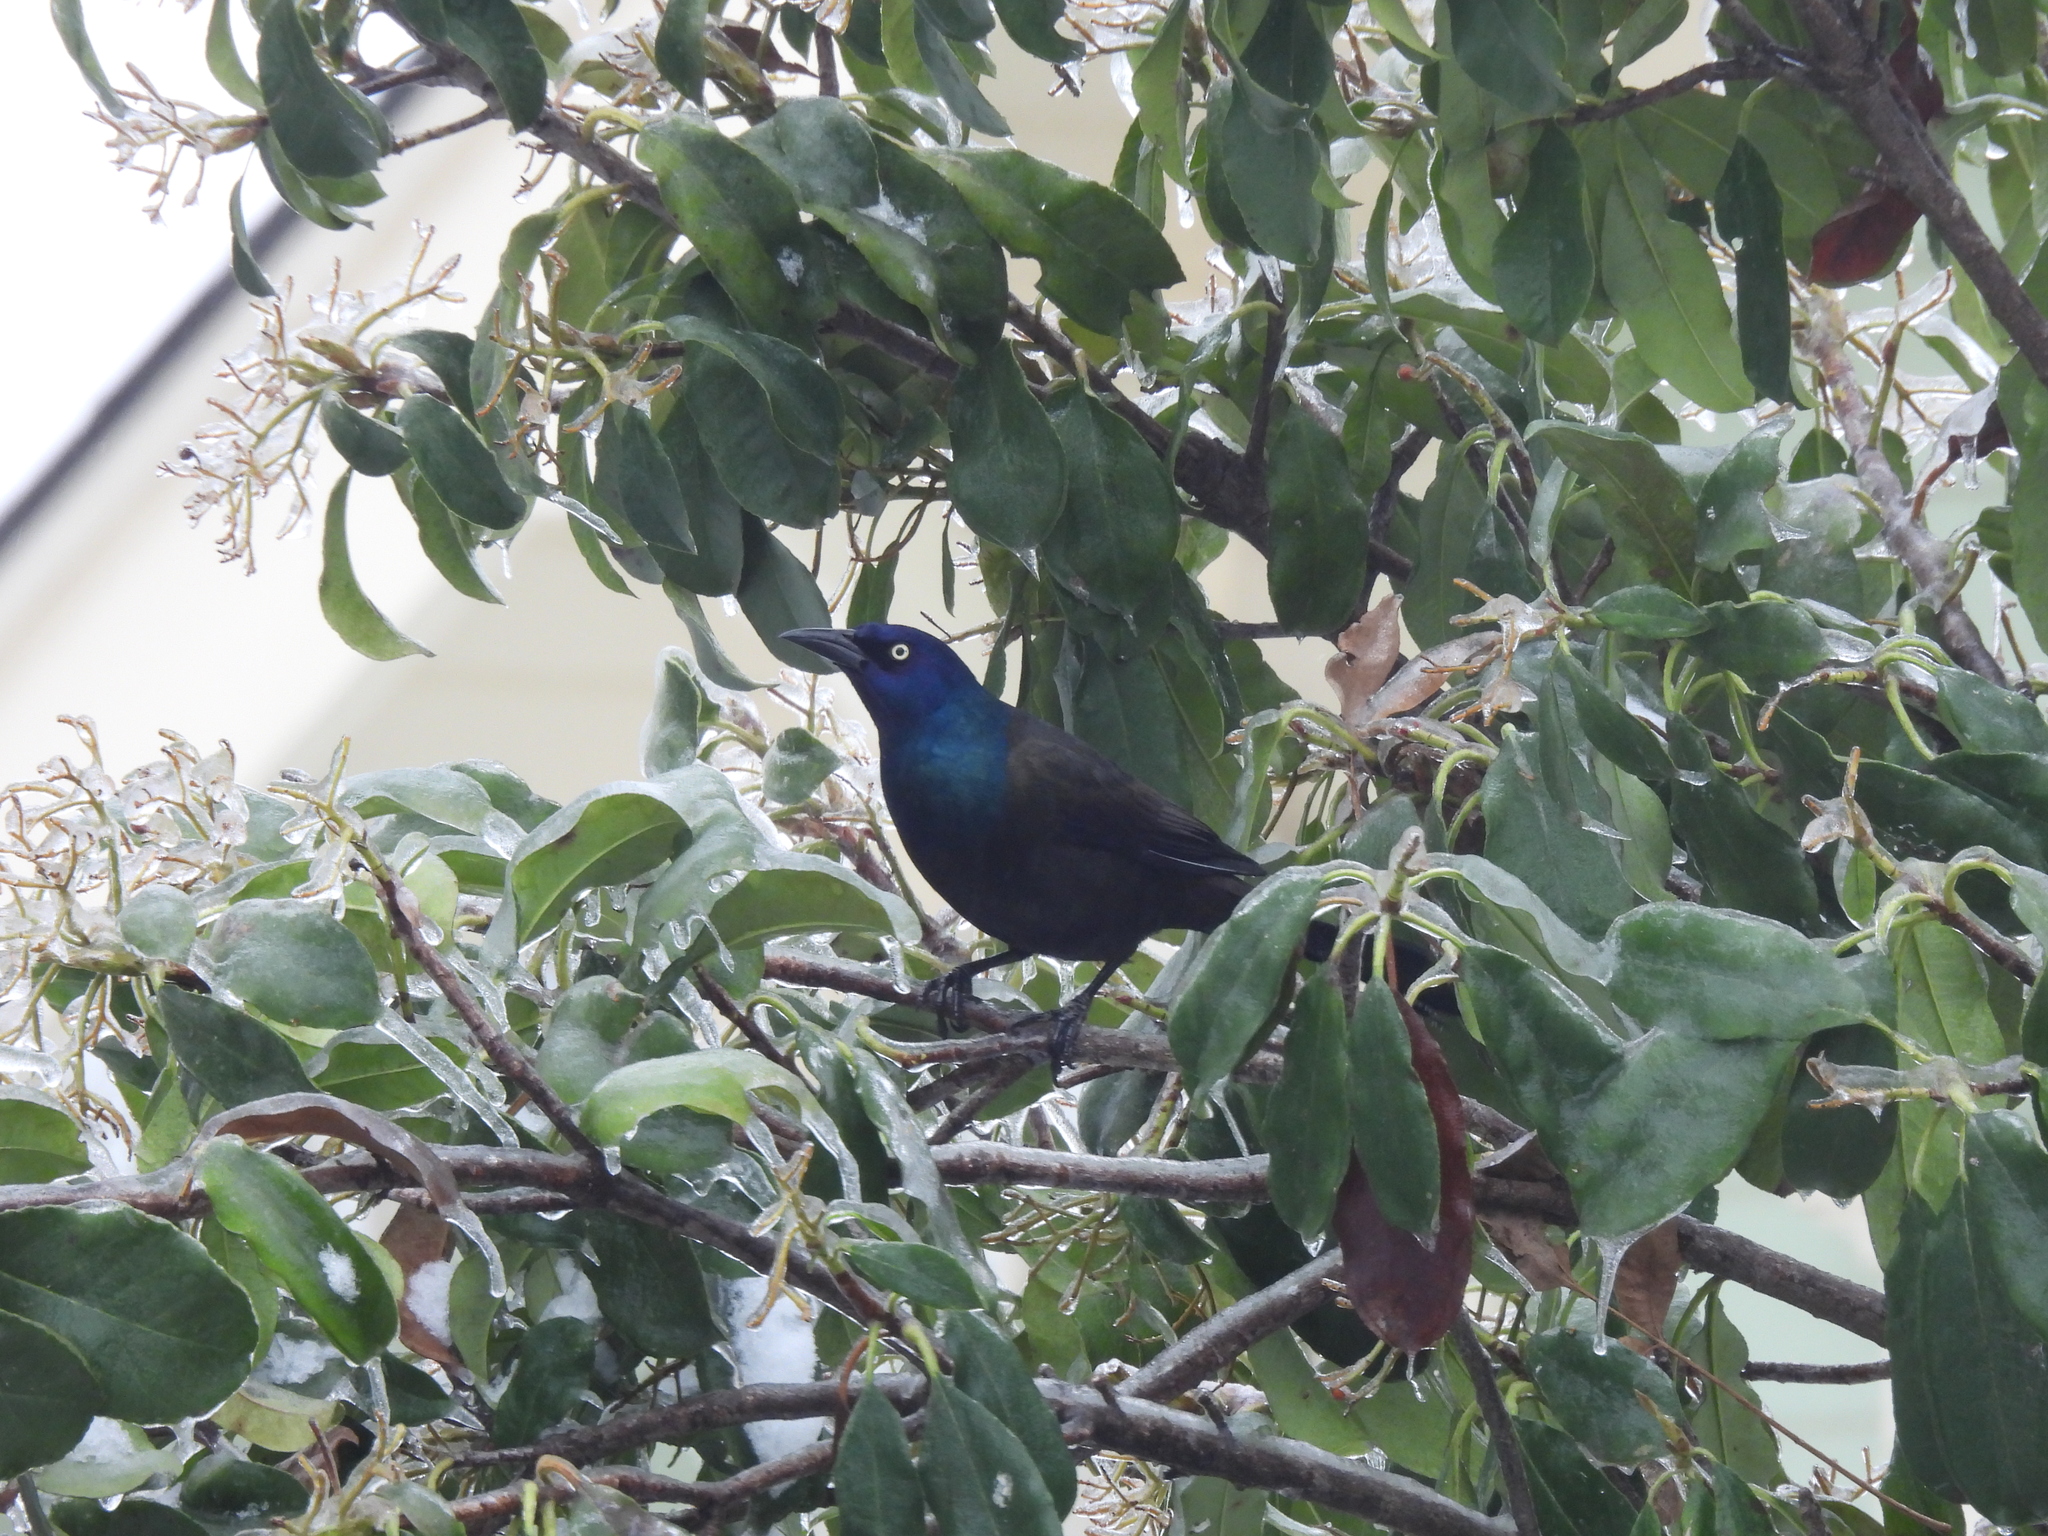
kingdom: Animalia
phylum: Chordata
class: Aves
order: Passeriformes
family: Icteridae
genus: Quiscalus
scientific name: Quiscalus quiscula
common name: Common grackle
